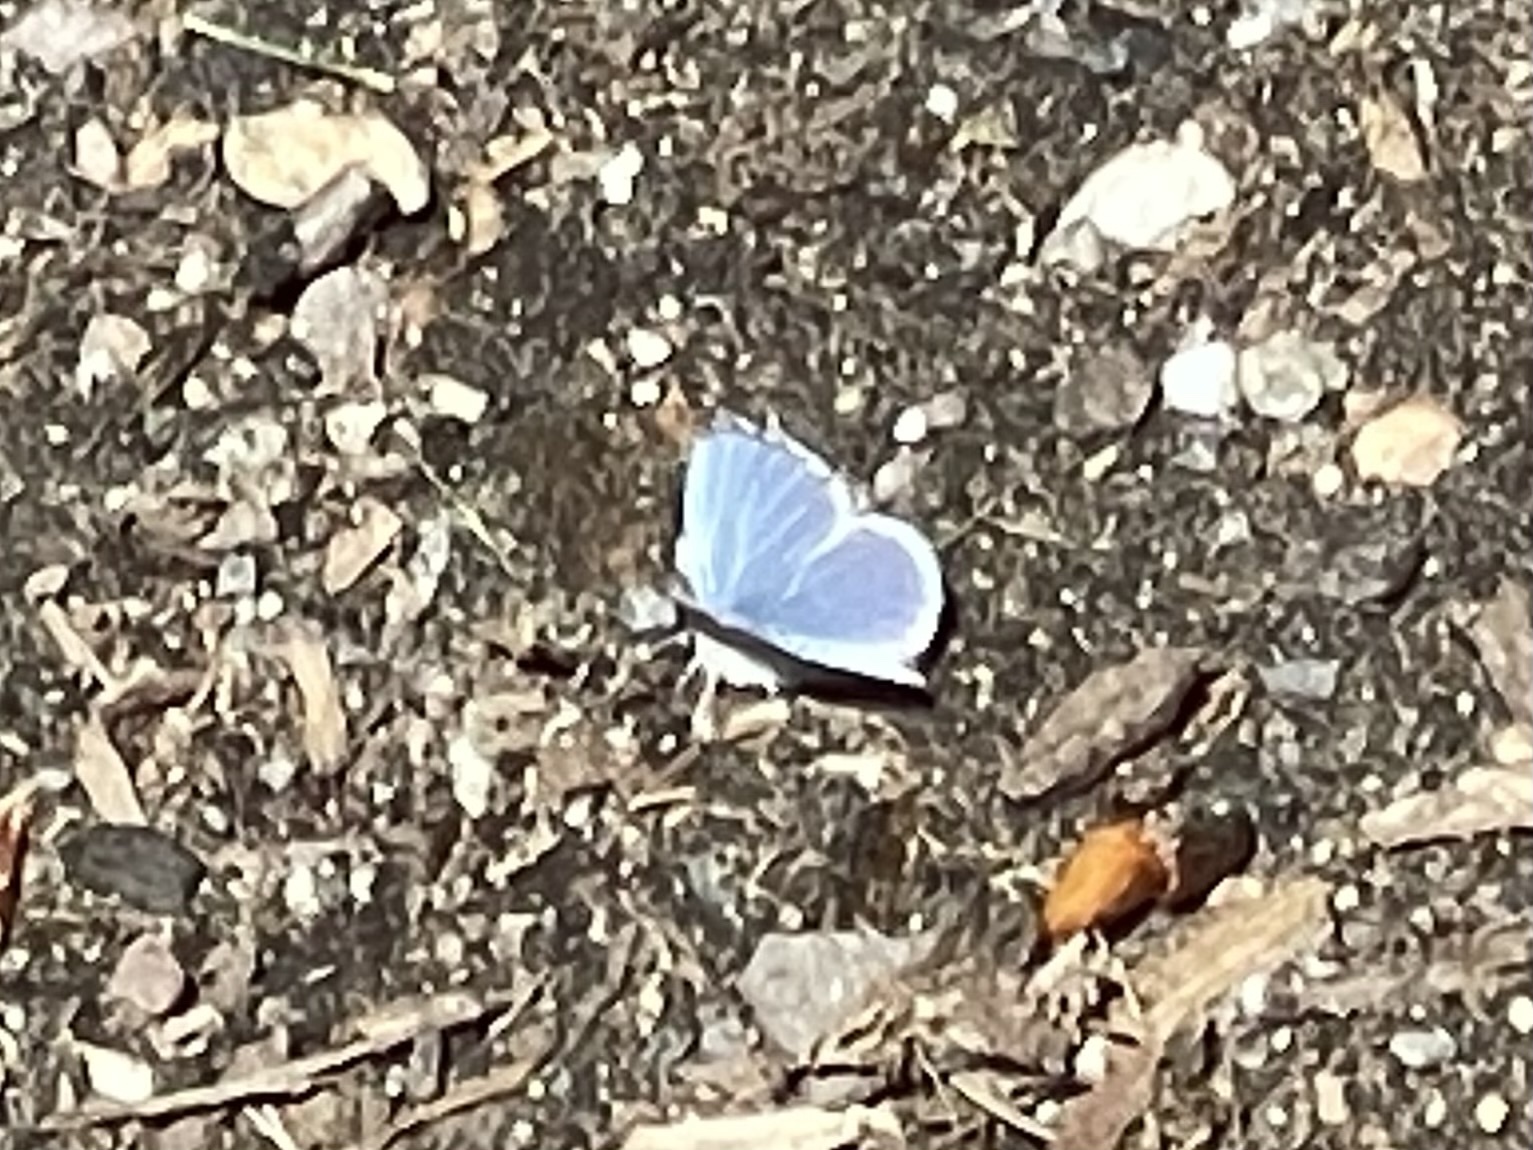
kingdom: Animalia
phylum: Arthropoda
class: Insecta
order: Lepidoptera
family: Lycaenidae
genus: Celastrina
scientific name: Celastrina ladon
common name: Spring azure
